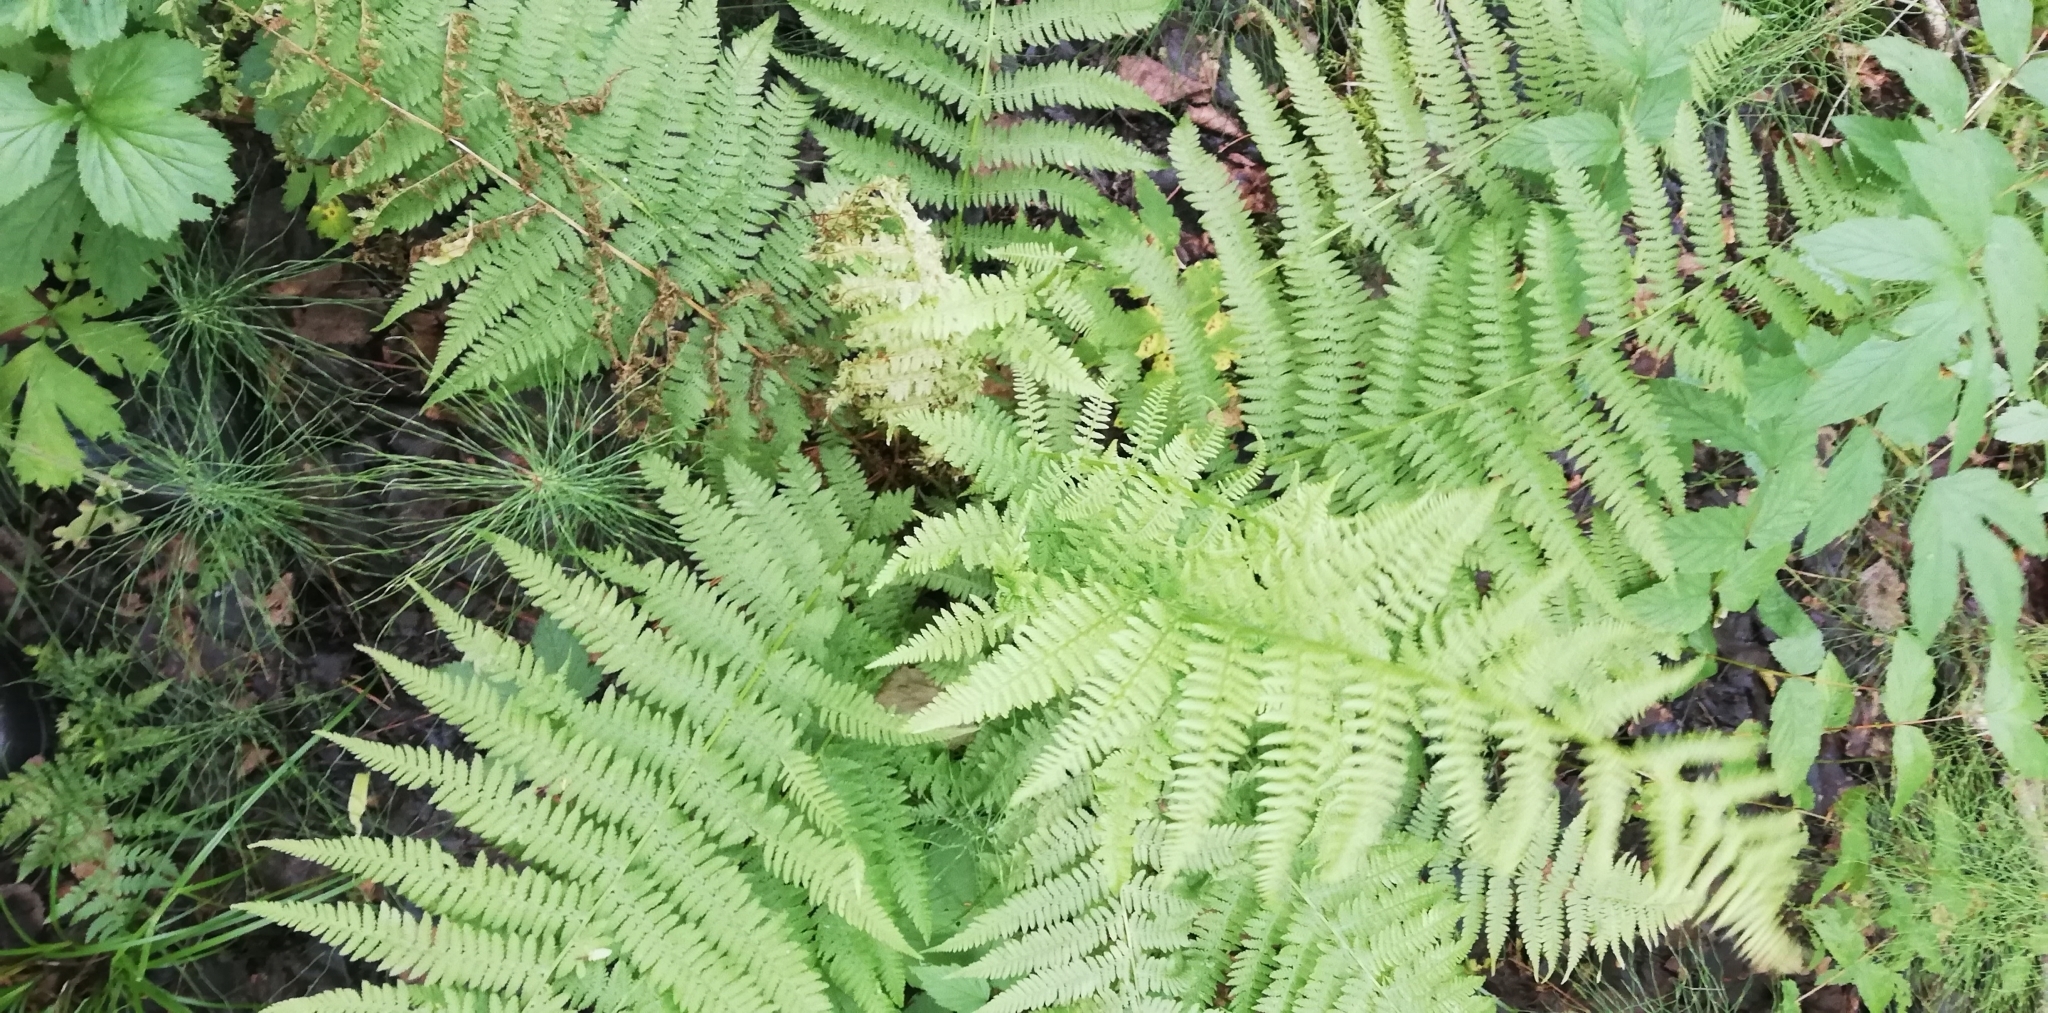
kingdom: Plantae
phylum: Tracheophyta
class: Polypodiopsida
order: Polypodiales
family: Athyriaceae
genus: Athyrium
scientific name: Athyrium filix-femina
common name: Lady fern
